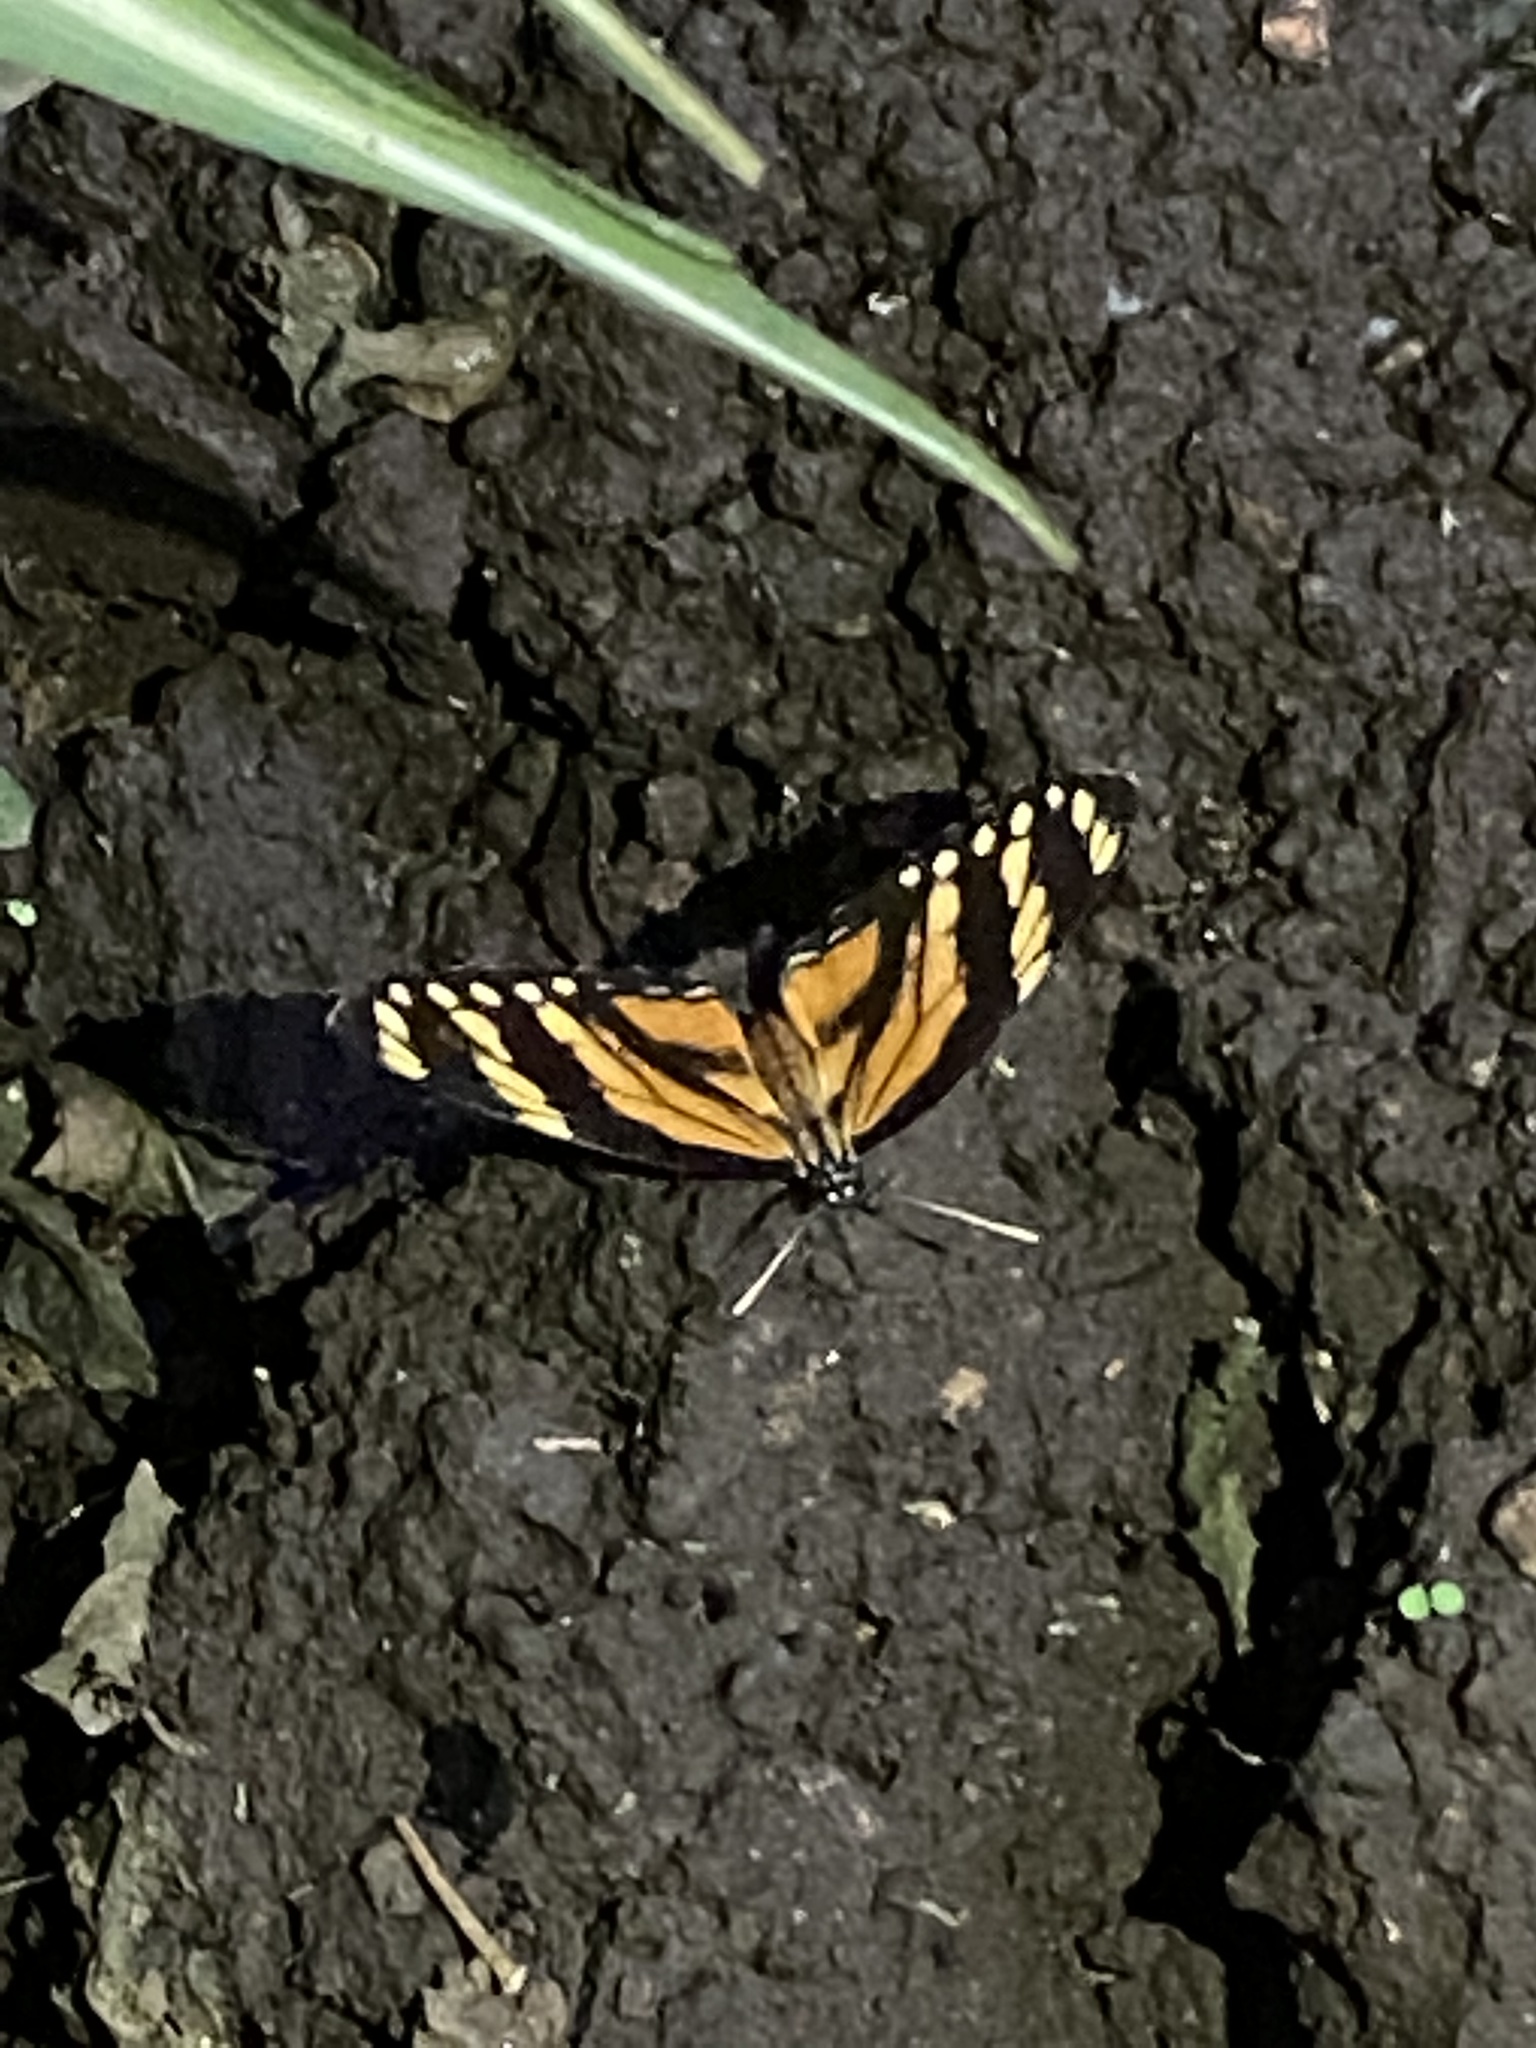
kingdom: Animalia
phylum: Arthropoda
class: Insecta
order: Lepidoptera
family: Nymphalidae
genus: Eresia
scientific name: Eresia phillyra
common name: Longwing crescent
